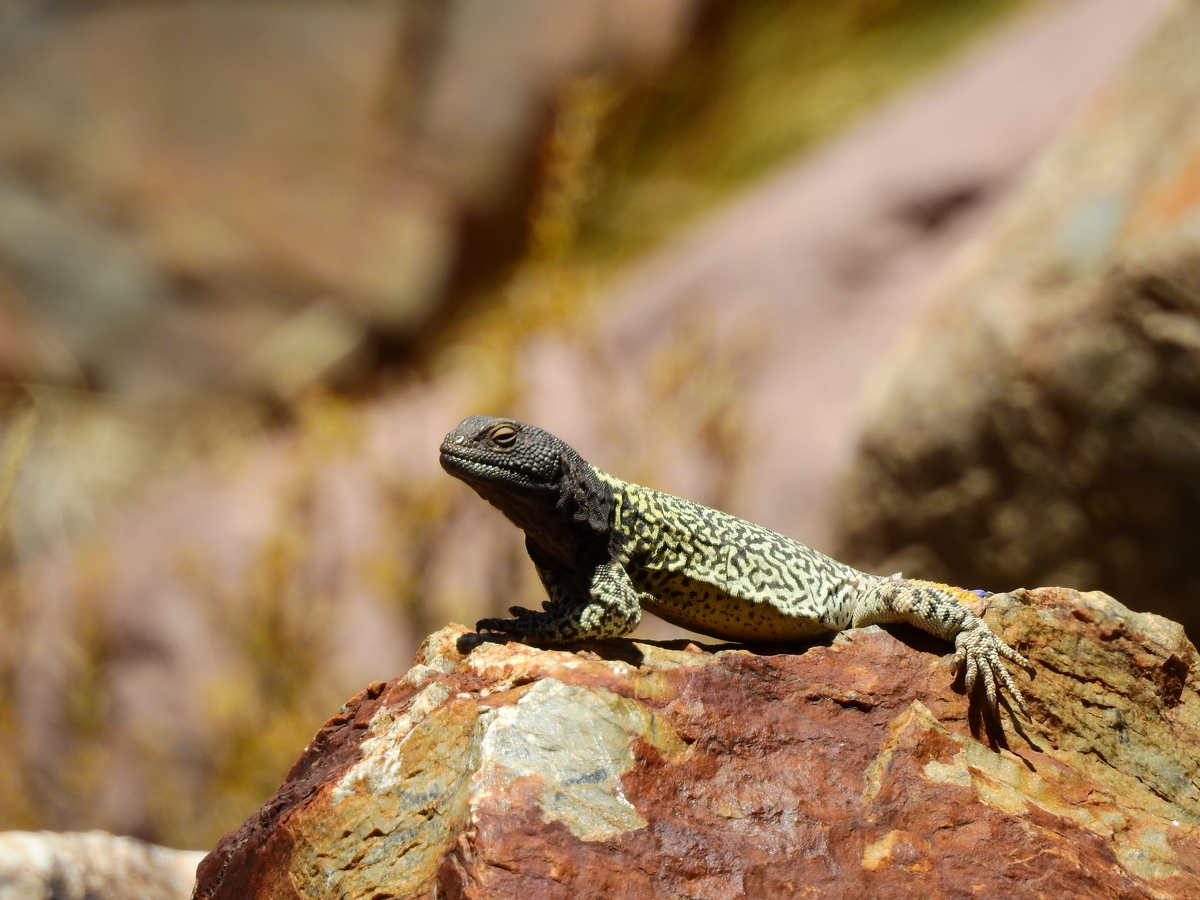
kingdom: Animalia
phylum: Chordata
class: Squamata
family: Liolaemidae
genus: Phymaturus
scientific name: Phymaturus palluma
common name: High mountain lizard
